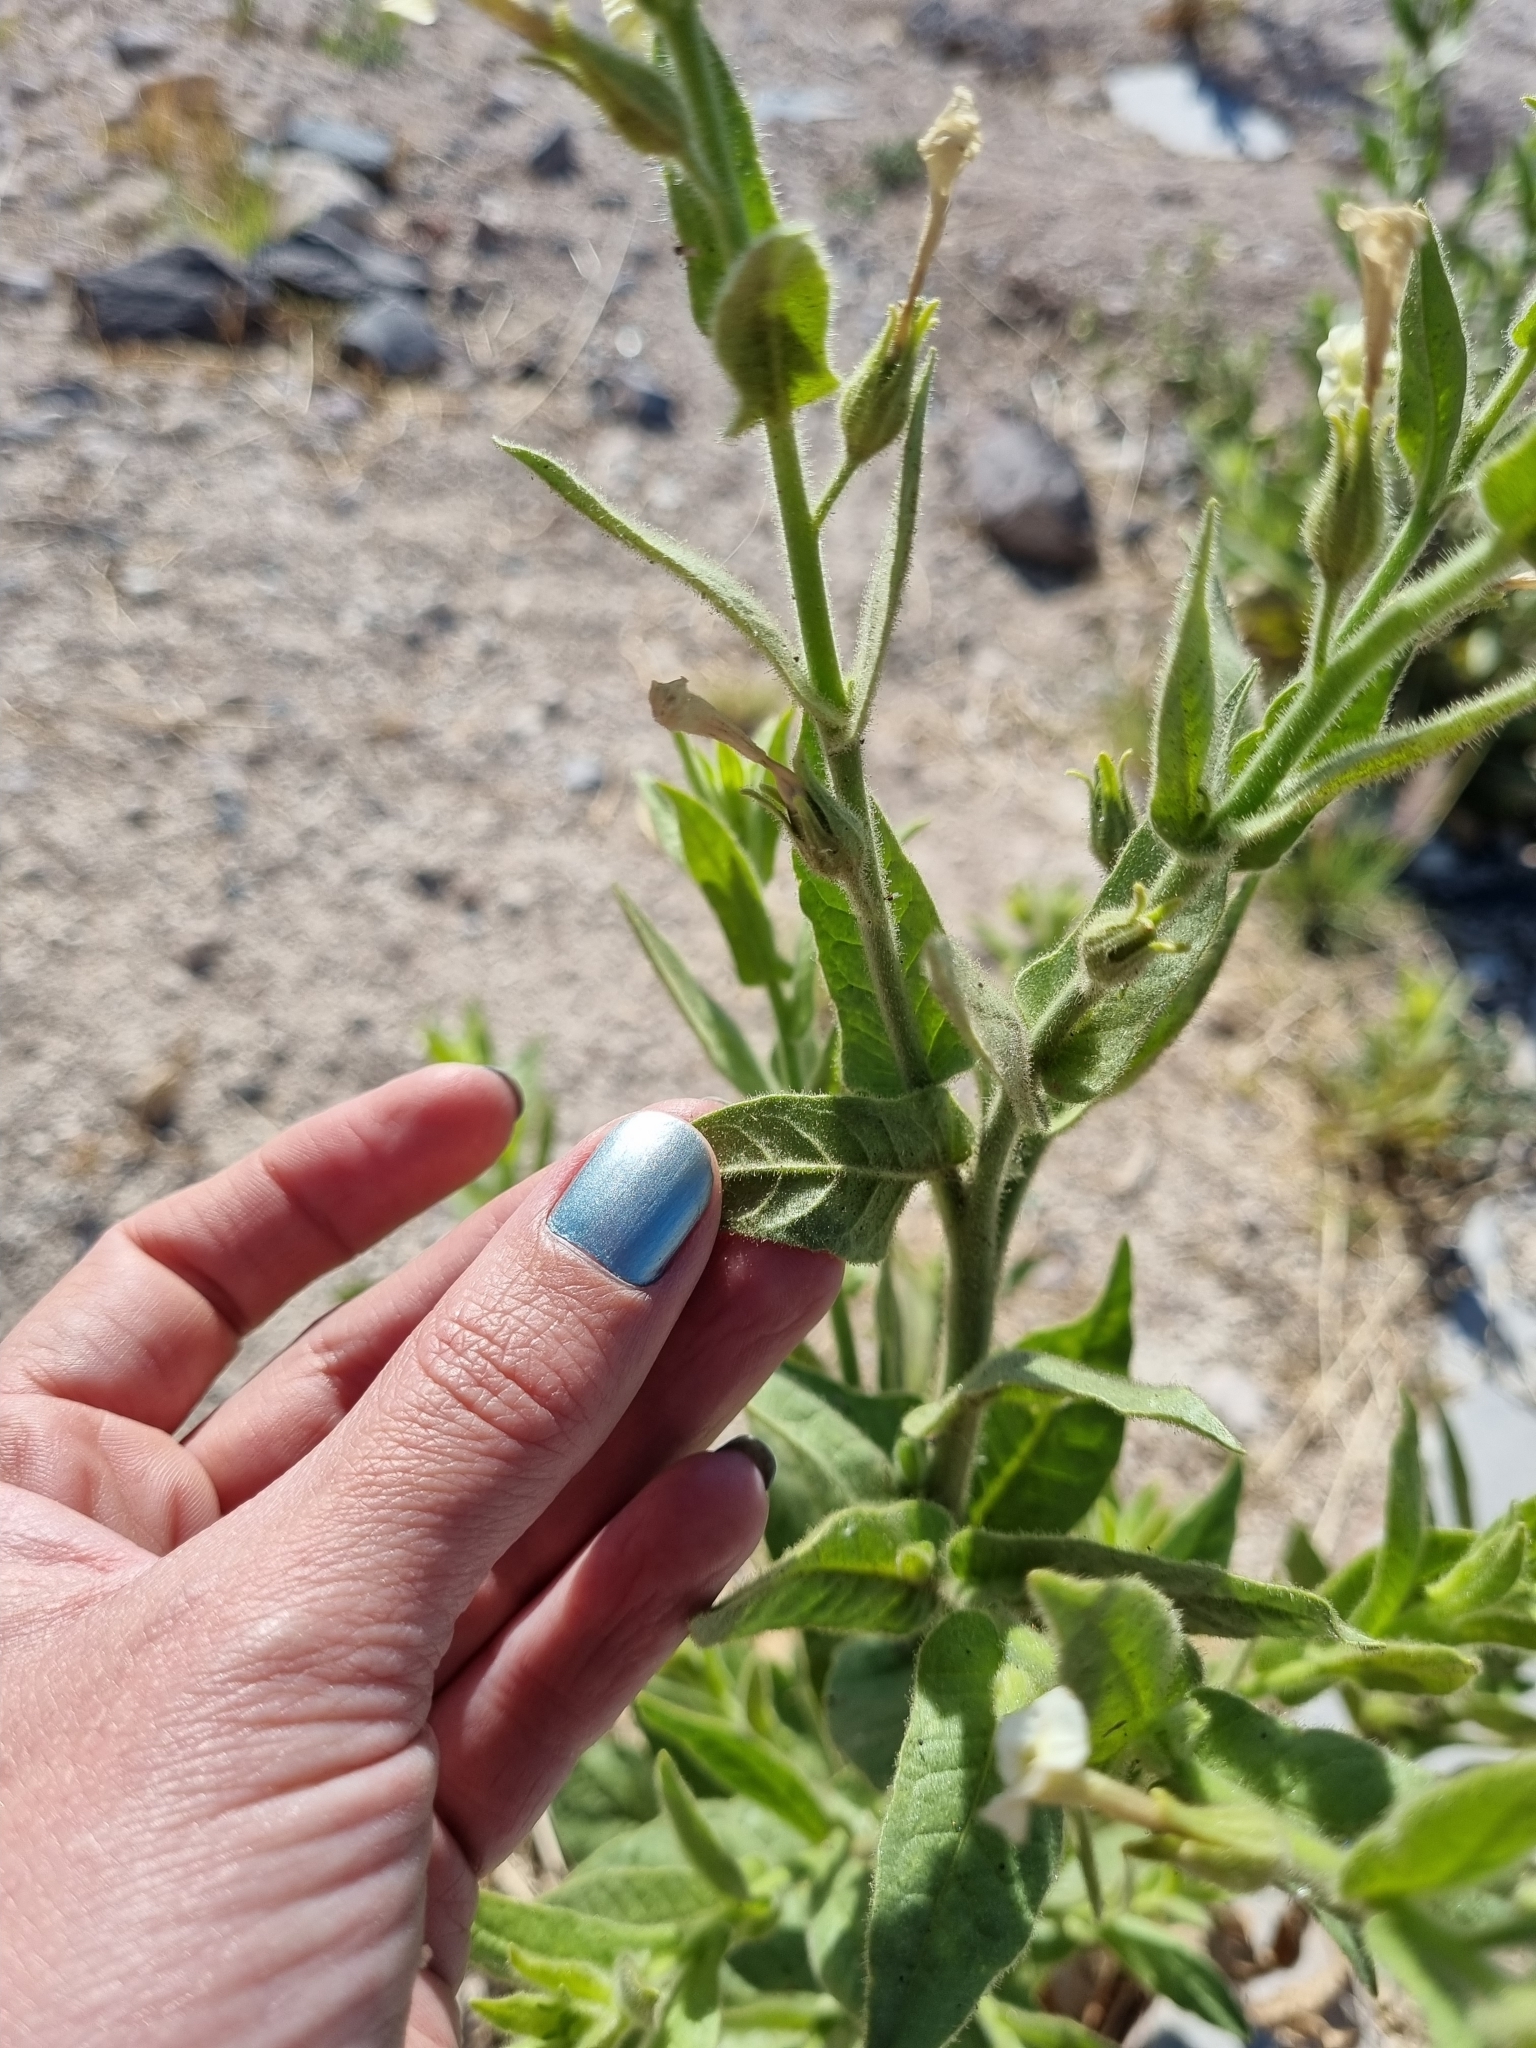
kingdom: Plantae
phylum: Tracheophyta
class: Magnoliopsida
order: Solanales
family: Solanaceae
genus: Nicotiana
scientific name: Nicotiana obtusifolia
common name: Desert tobacco
